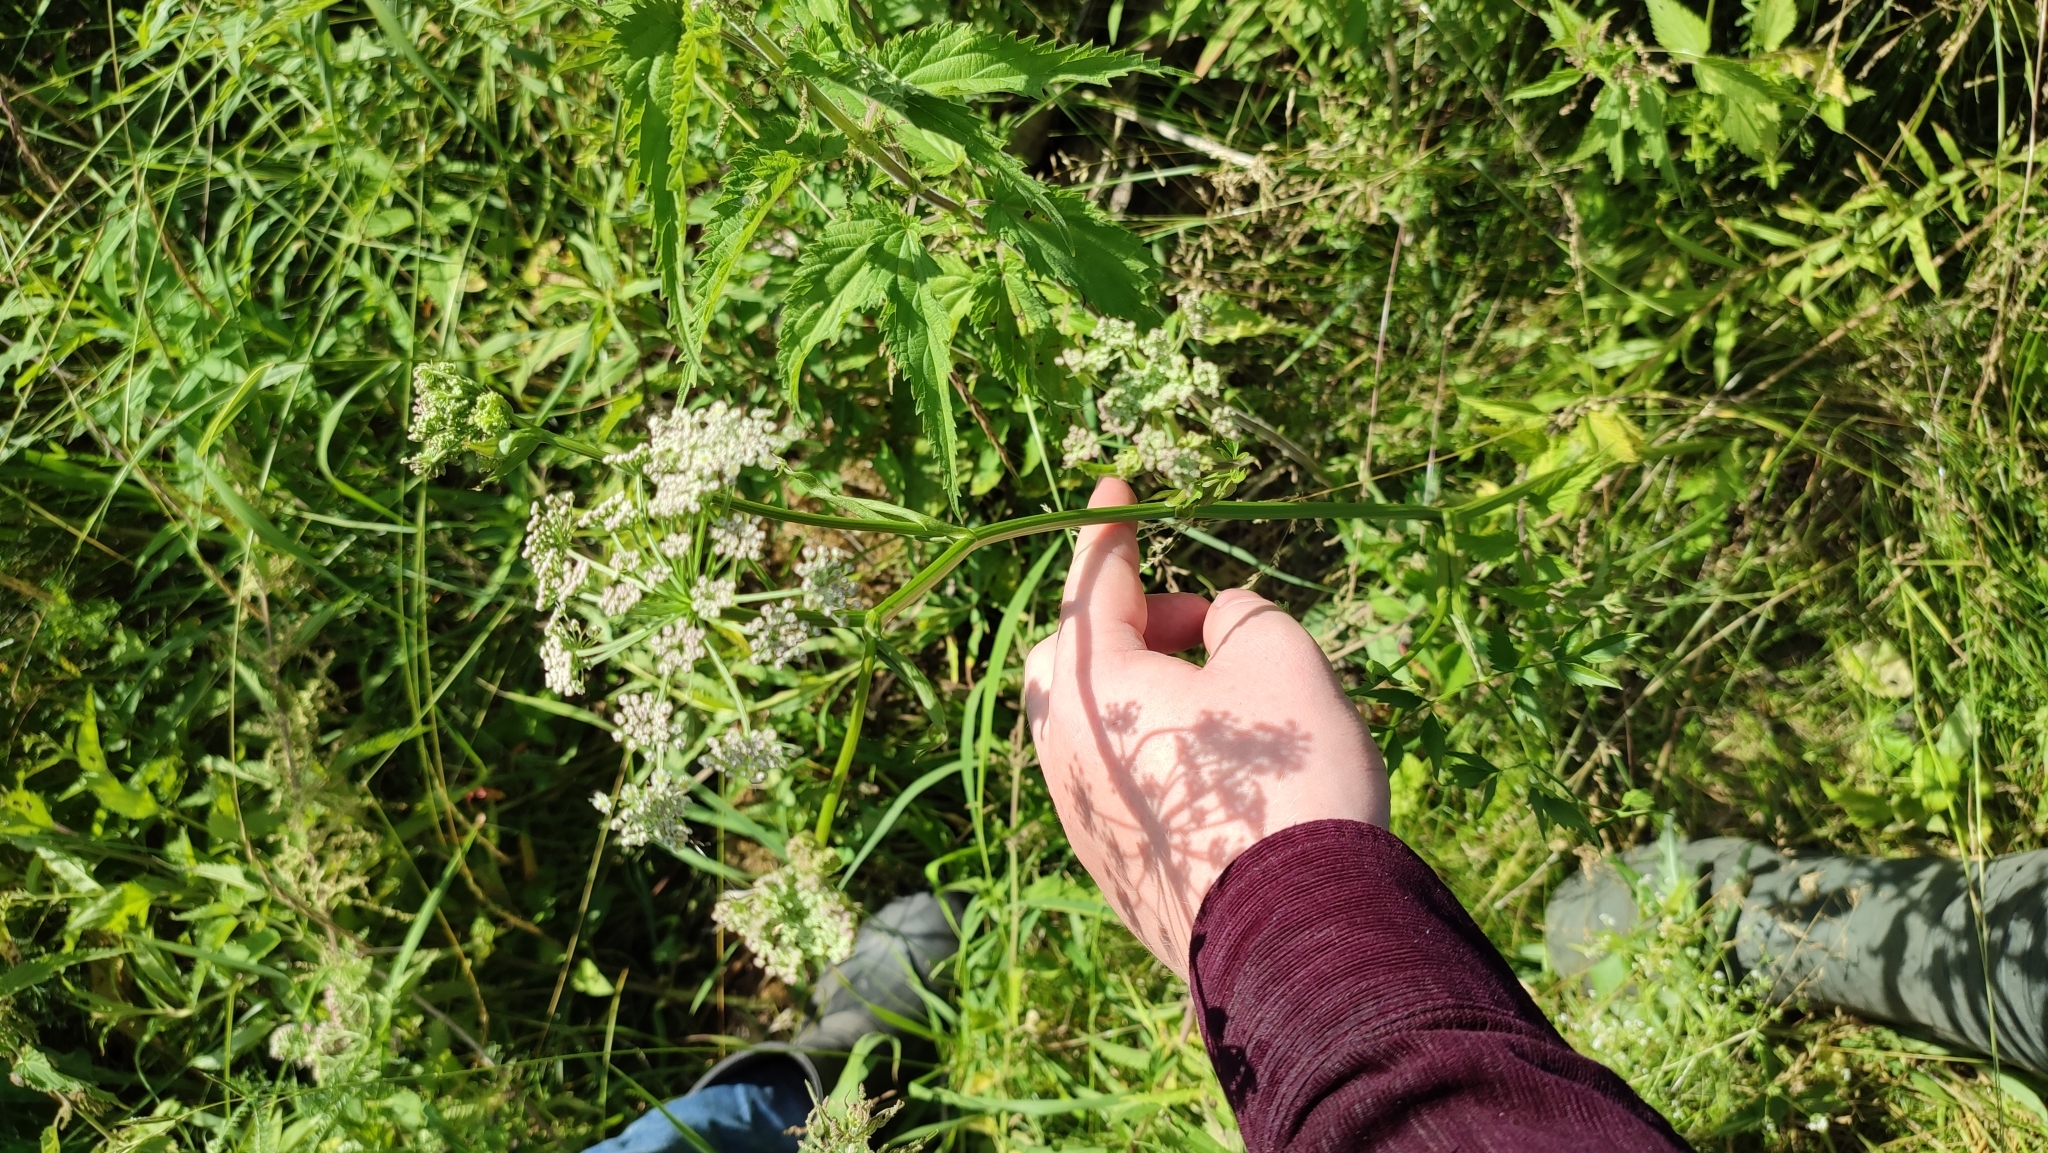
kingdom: Plantae
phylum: Tracheophyta
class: Magnoliopsida
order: Apiales
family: Apiaceae
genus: Ostericum
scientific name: Ostericum palustre
